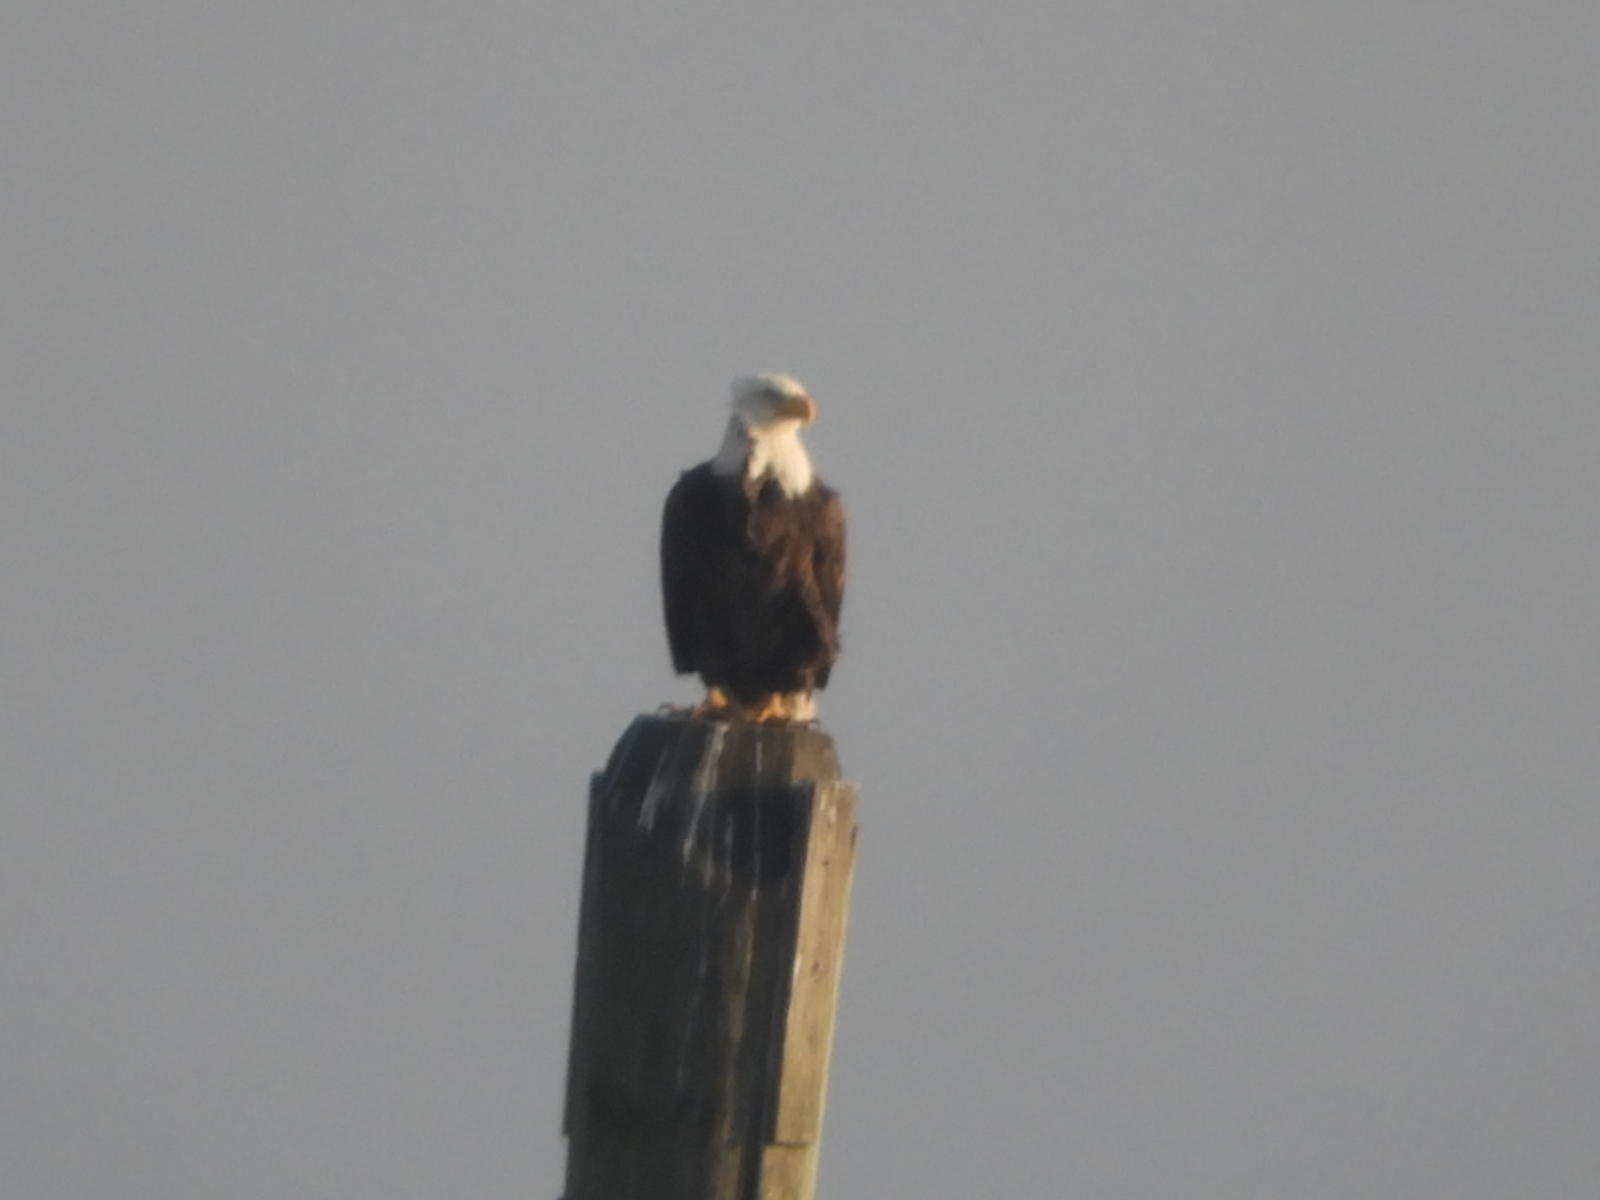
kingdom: Animalia
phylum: Chordata
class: Aves
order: Accipitriformes
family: Accipitridae
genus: Haliaeetus
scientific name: Haliaeetus leucocephalus
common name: Bald eagle
